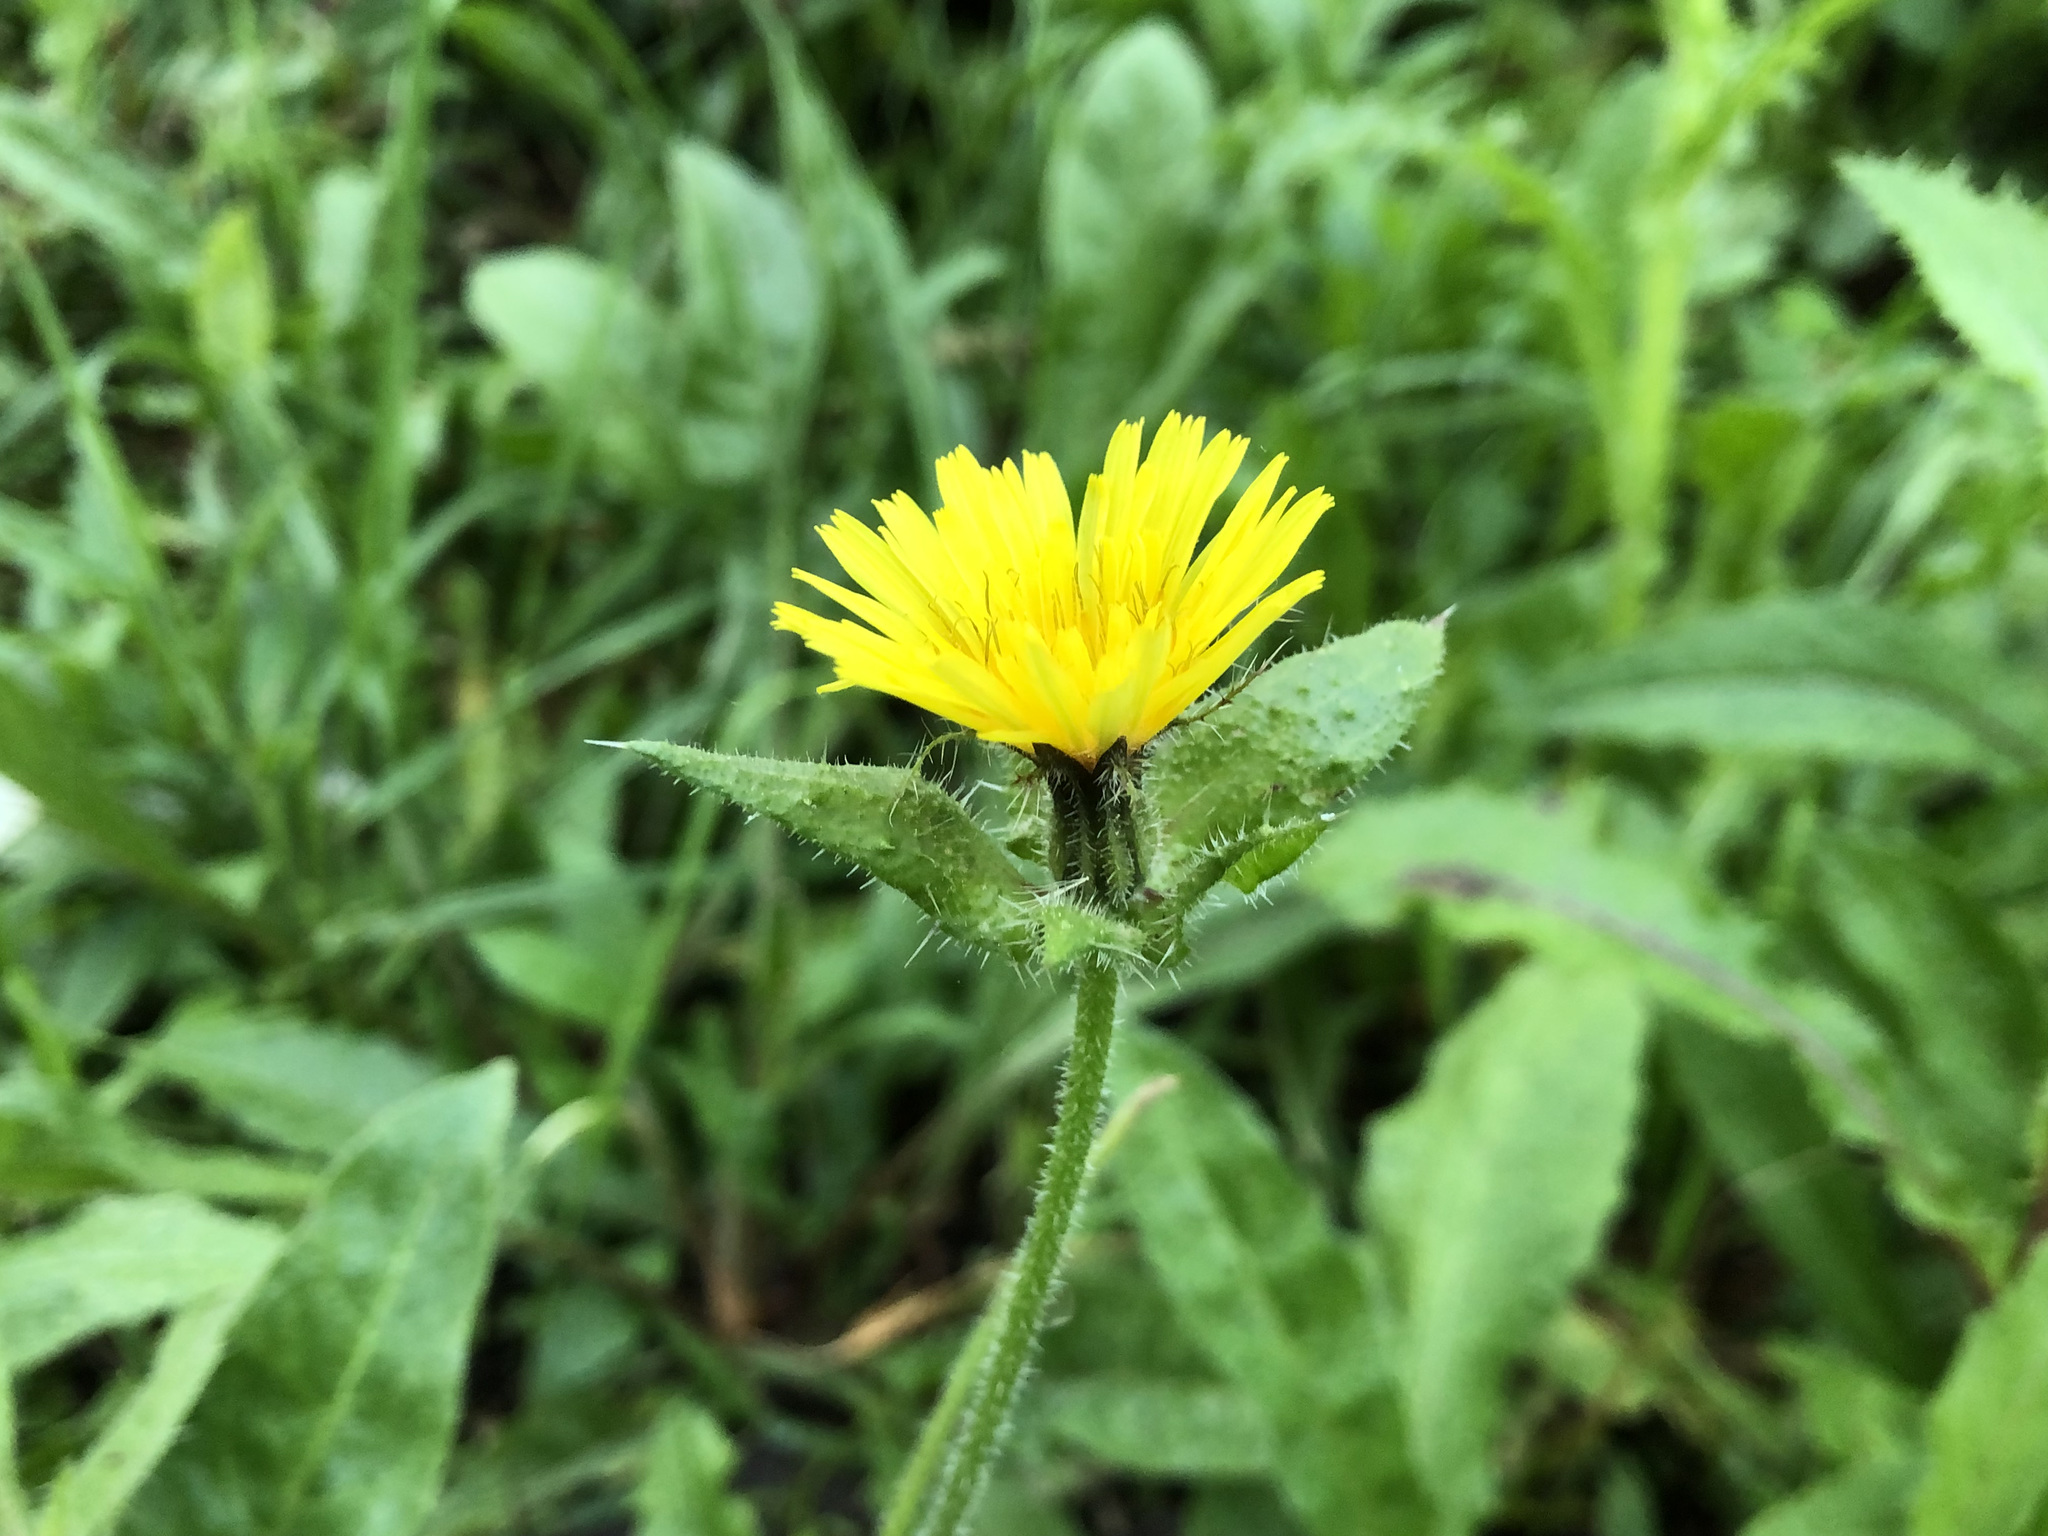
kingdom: Plantae
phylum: Tracheophyta
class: Magnoliopsida
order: Asterales
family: Asteraceae
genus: Helminthotheca
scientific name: Helminthotheca echioides
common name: Ox-tongue
